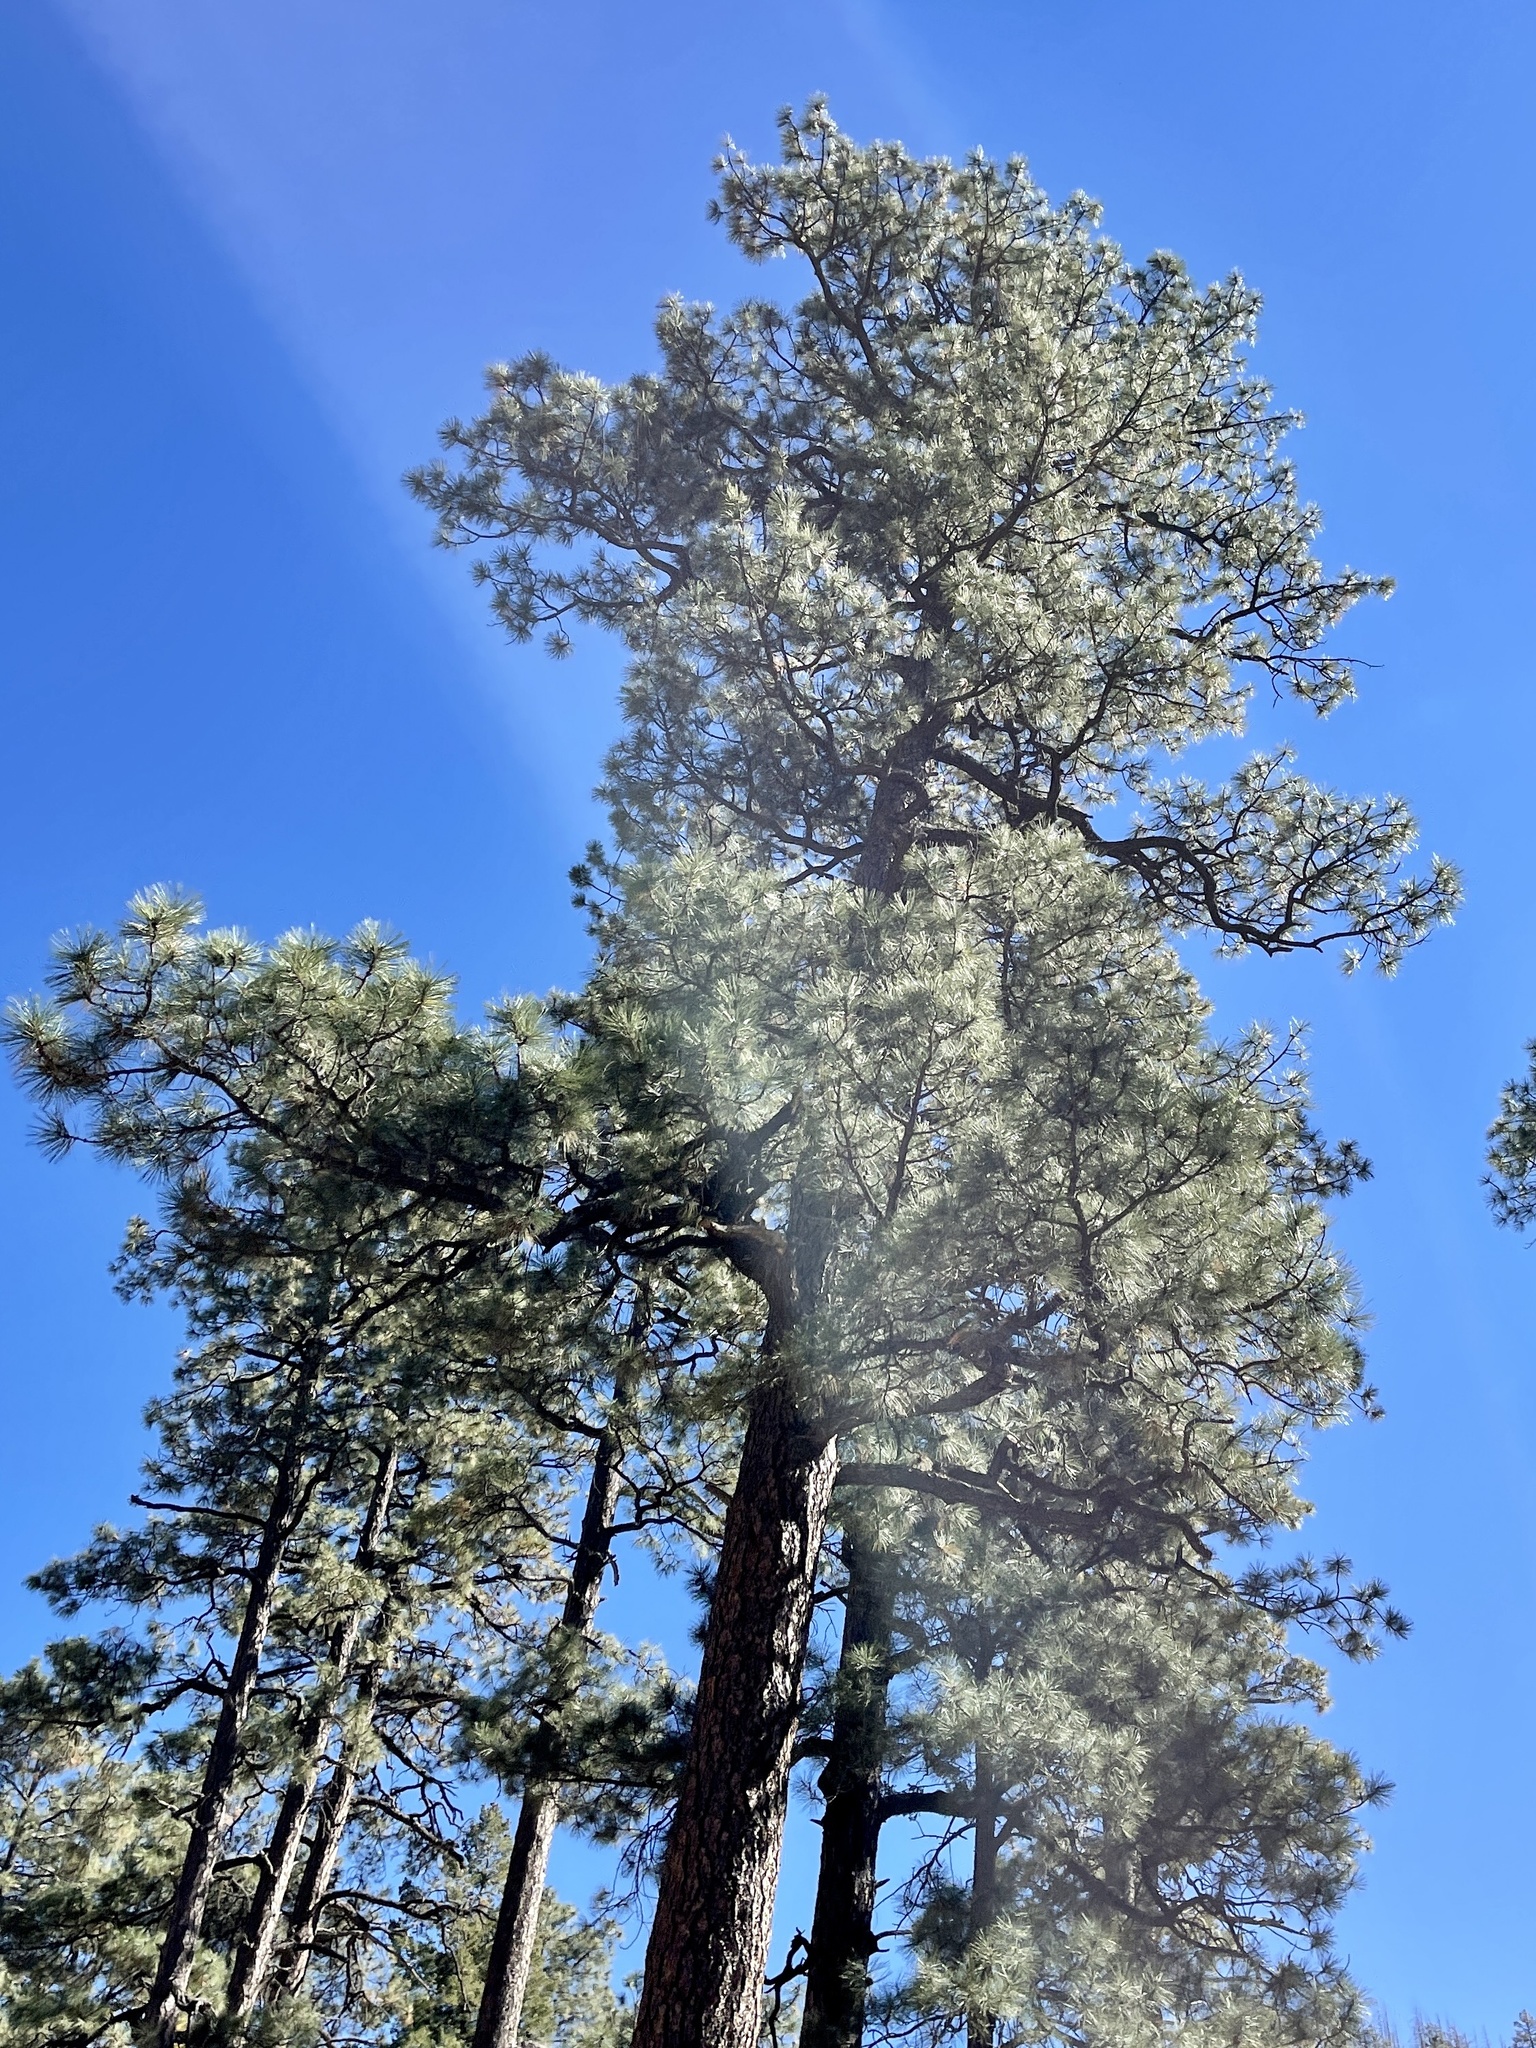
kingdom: Plantae
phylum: Tracheophyta
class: Pinopsida
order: Pinales
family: Pinaceae
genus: Pinus
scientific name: Pinus ponderosa
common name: Western yellow-pine
